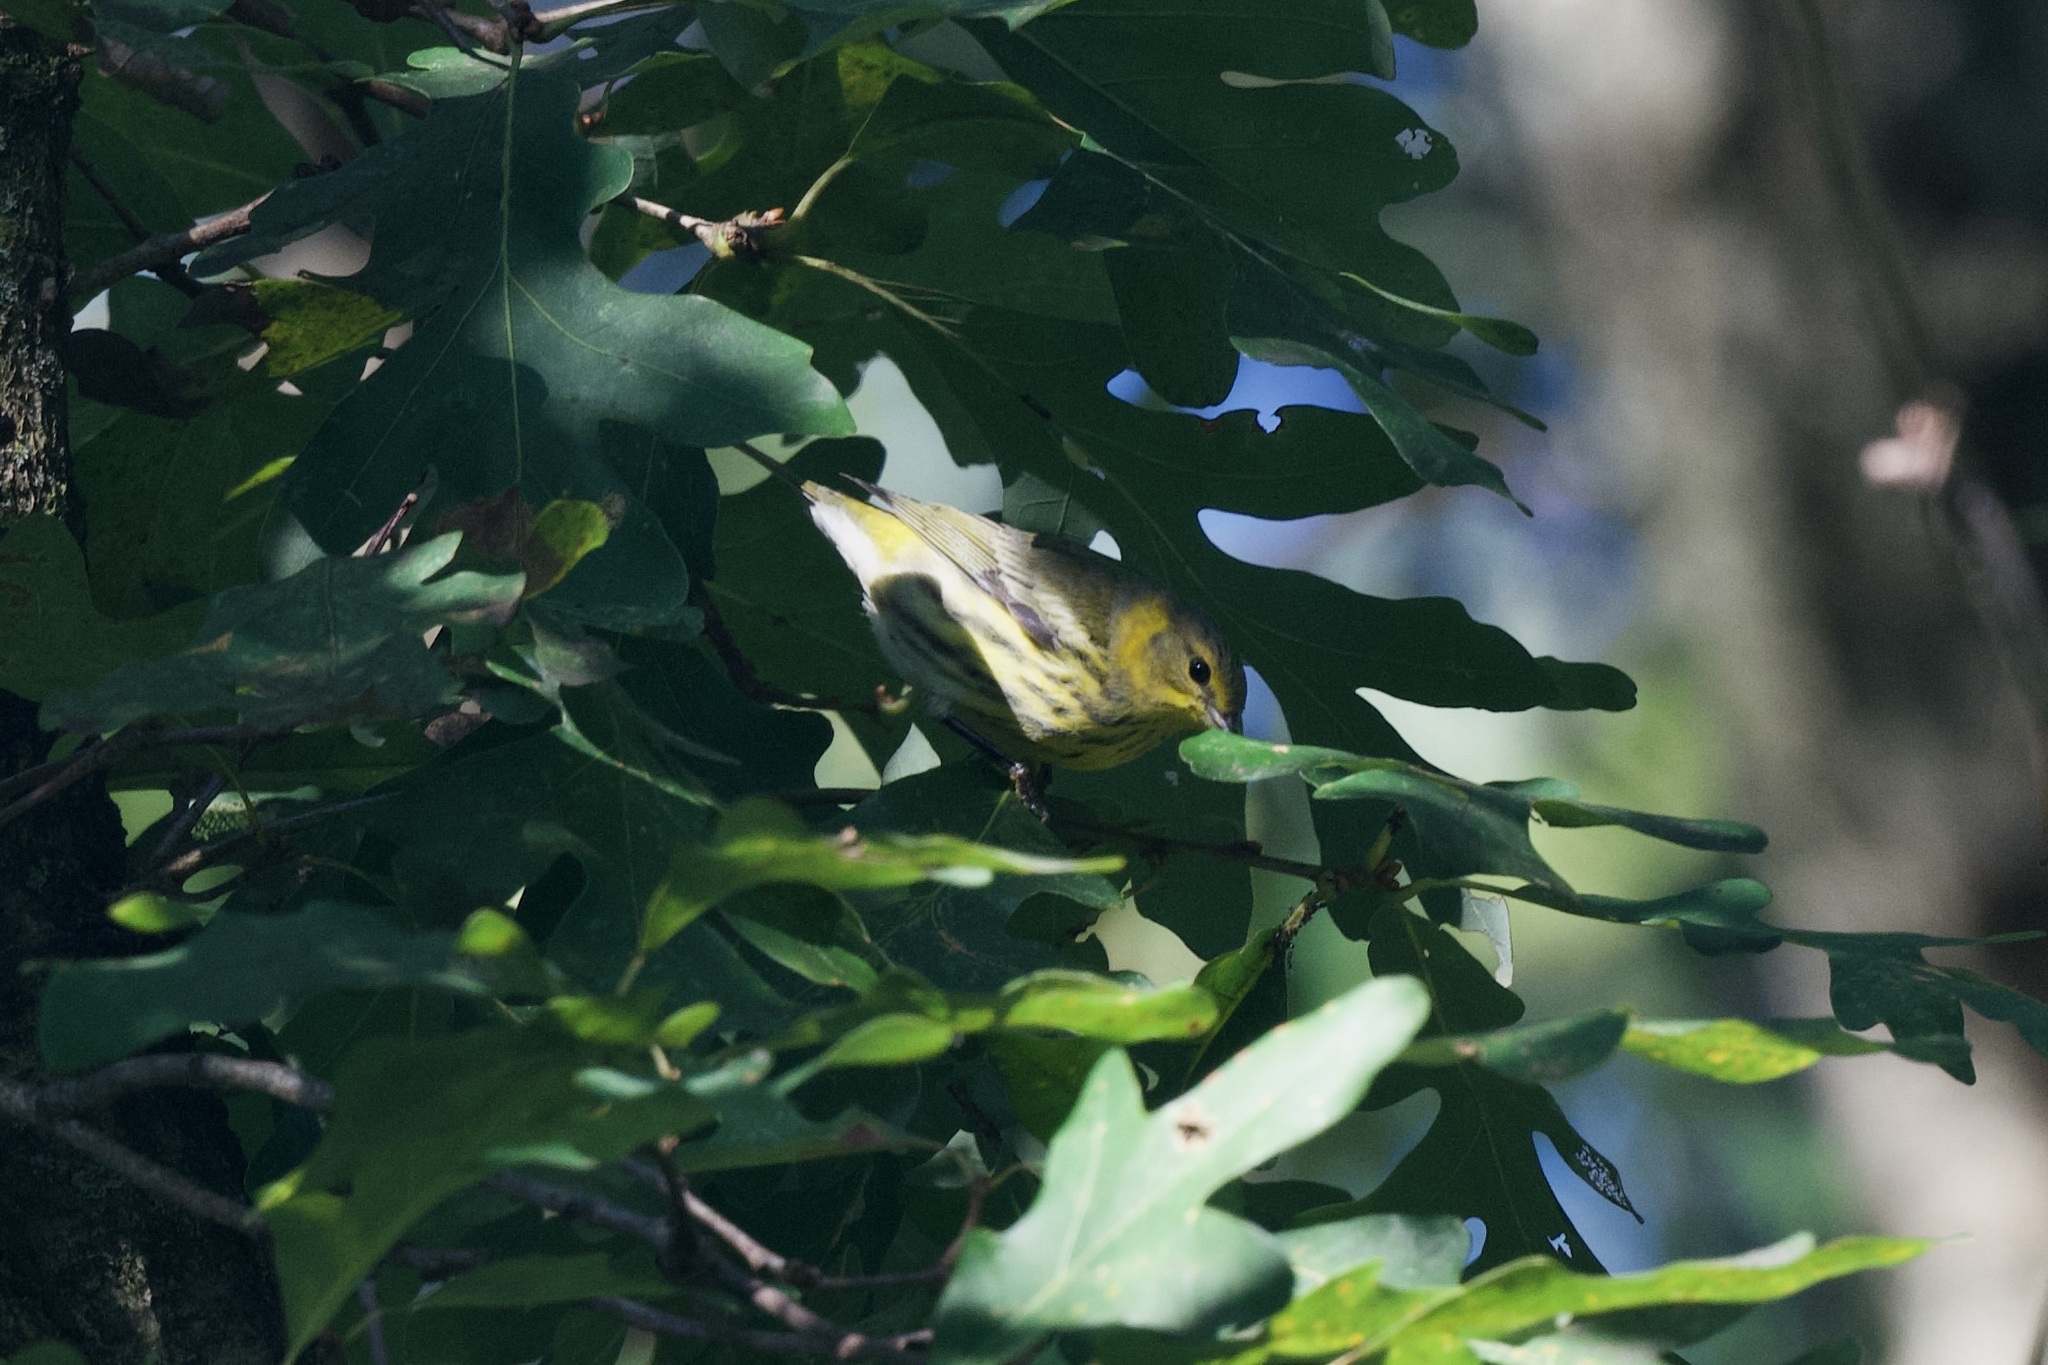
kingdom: Animalia
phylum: Chordata
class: Aves
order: Passeriformes
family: Parulidae
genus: Setophaga
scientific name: Setophaga tigrina
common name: Cape may warbler
